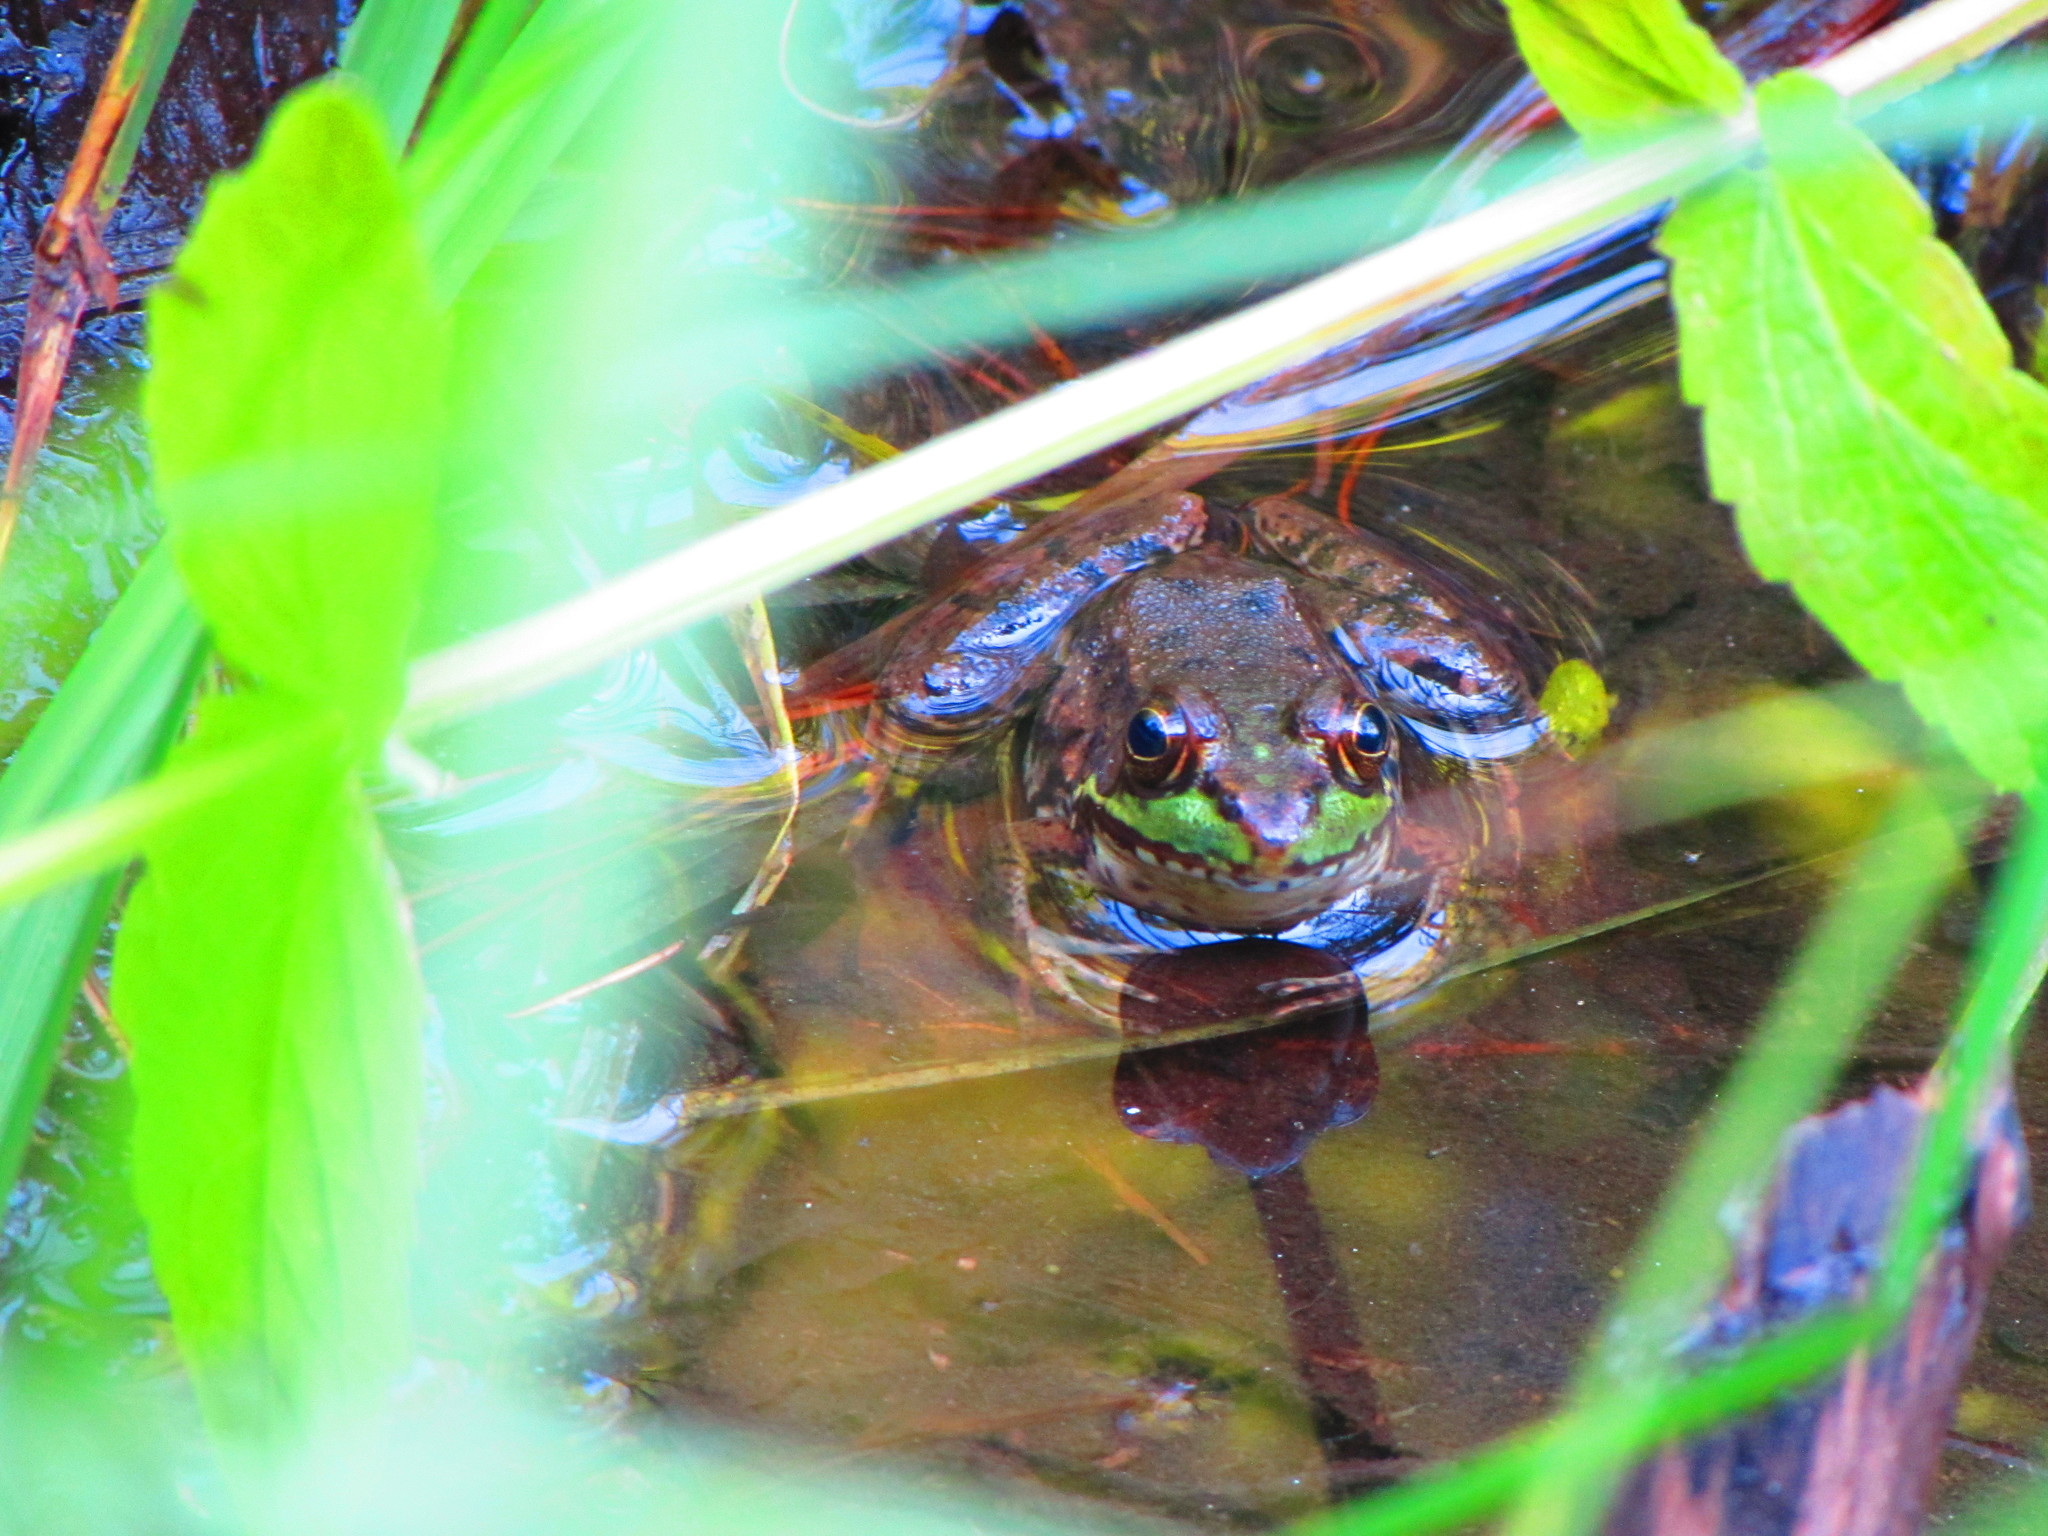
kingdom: Animalia
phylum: Chordata
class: Amphibia
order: Anura
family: Ranidae
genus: Lithobates
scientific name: Lithobates clamitans
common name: Green frog
